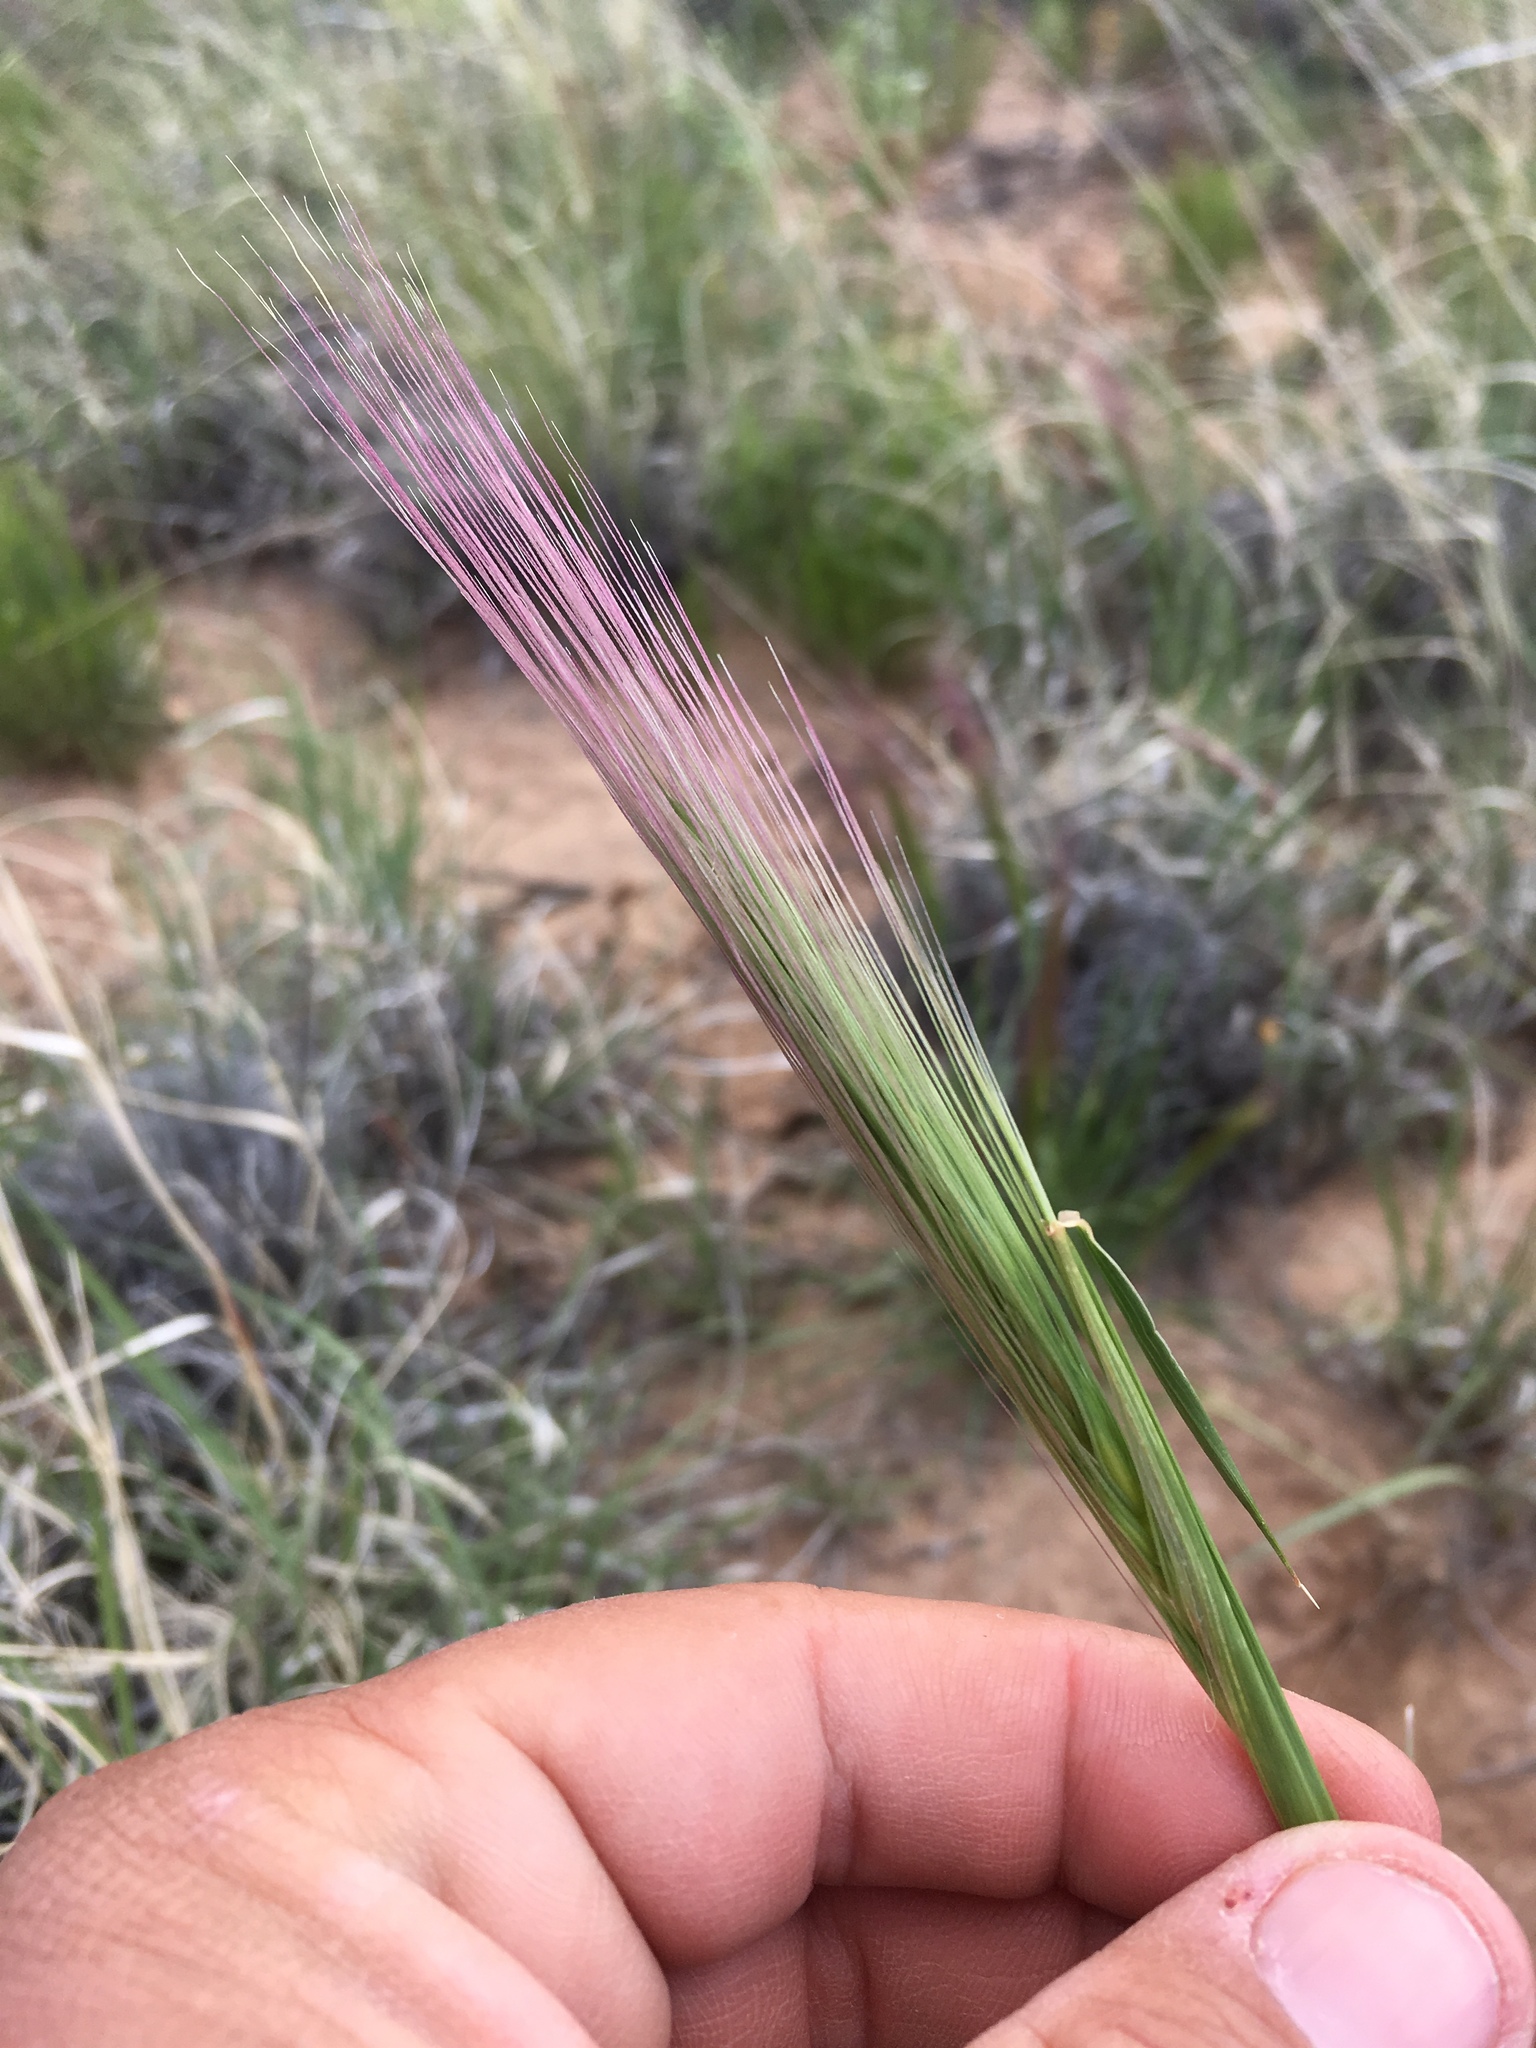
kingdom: Plantae
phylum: Tracheophyta
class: Liliopsida
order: Poales
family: Poaceae
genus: Elymus
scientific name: Elymus longifolius
